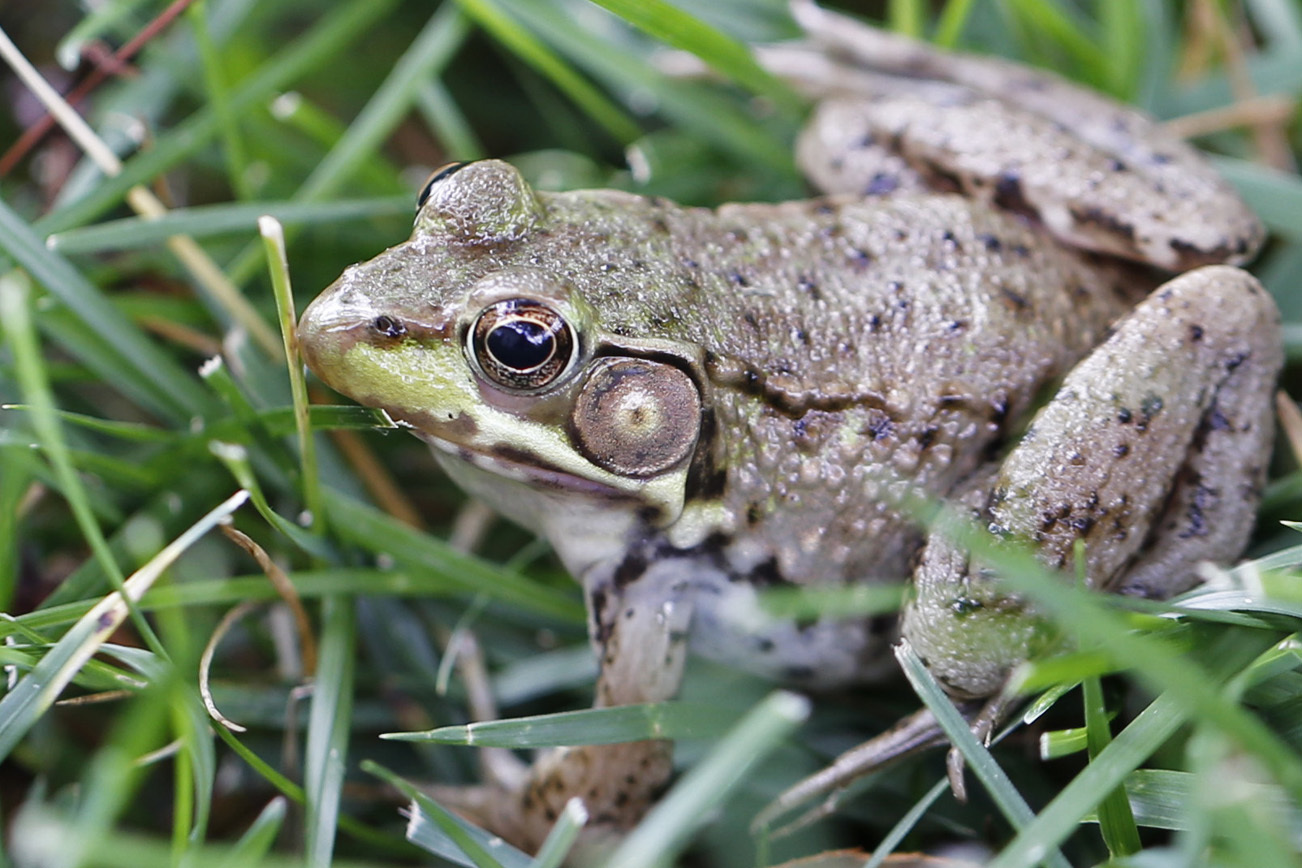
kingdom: Animalia
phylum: Chordata
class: Amphibia
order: Anura
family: Ranidae
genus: Lithobates
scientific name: Lithobates clamitans
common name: Green frog
